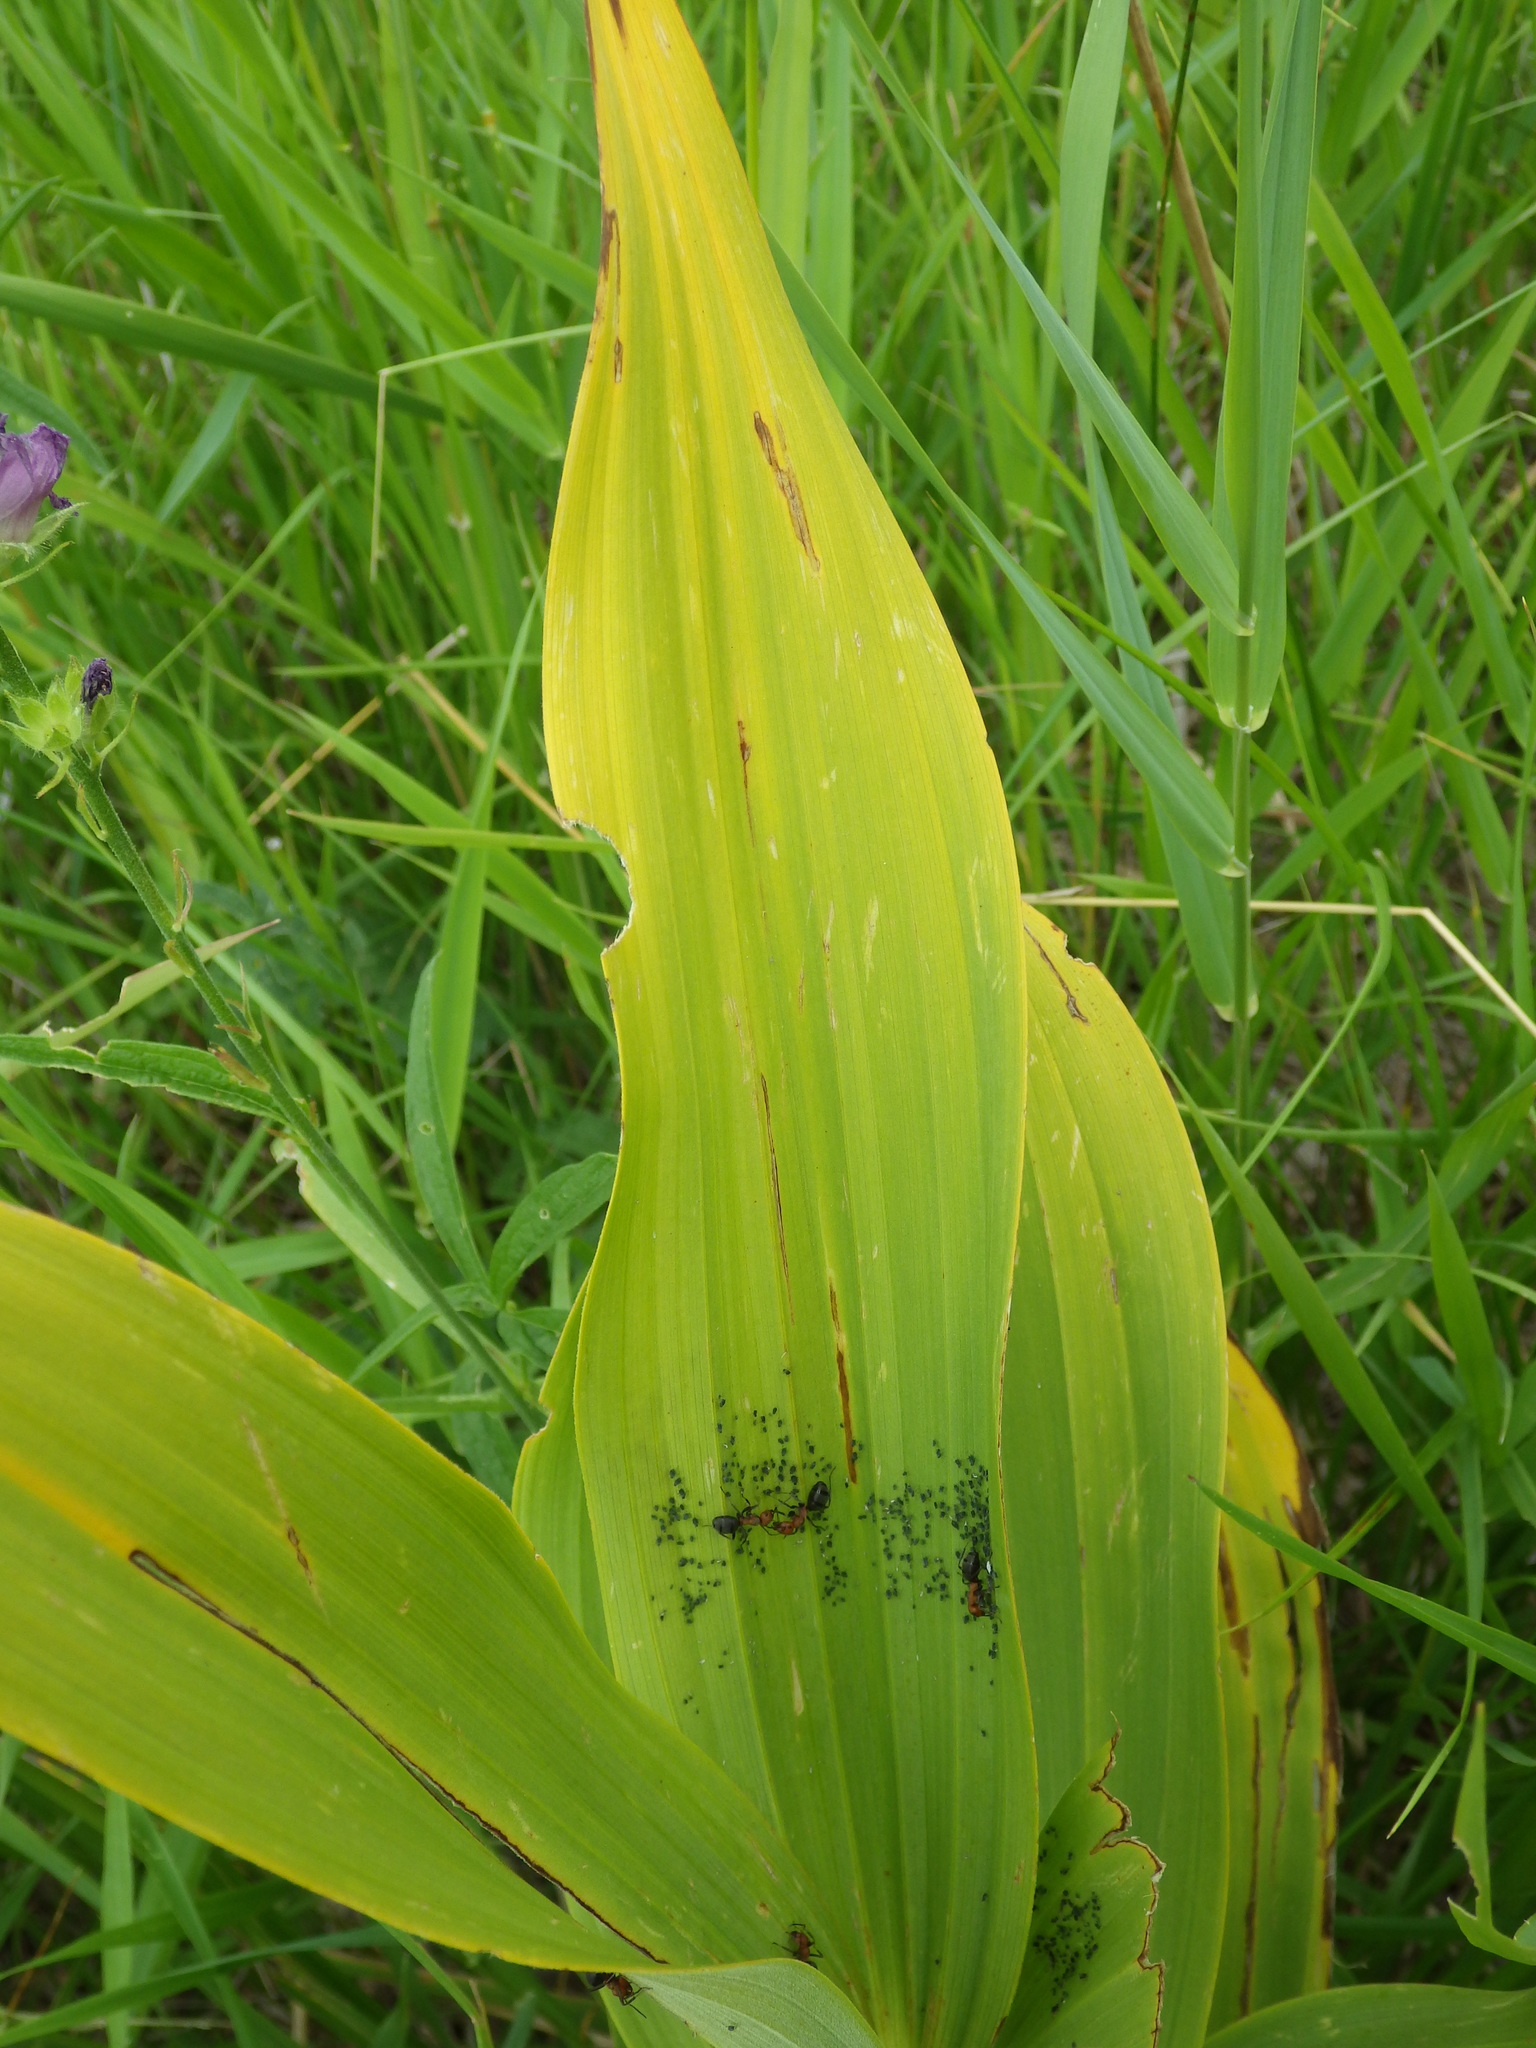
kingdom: Plantae
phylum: Tracheophyta
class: Liliopsida
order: Liliales
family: Melanthiaceae
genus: Veratrum
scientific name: Veratrum californicum
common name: California veratrum
